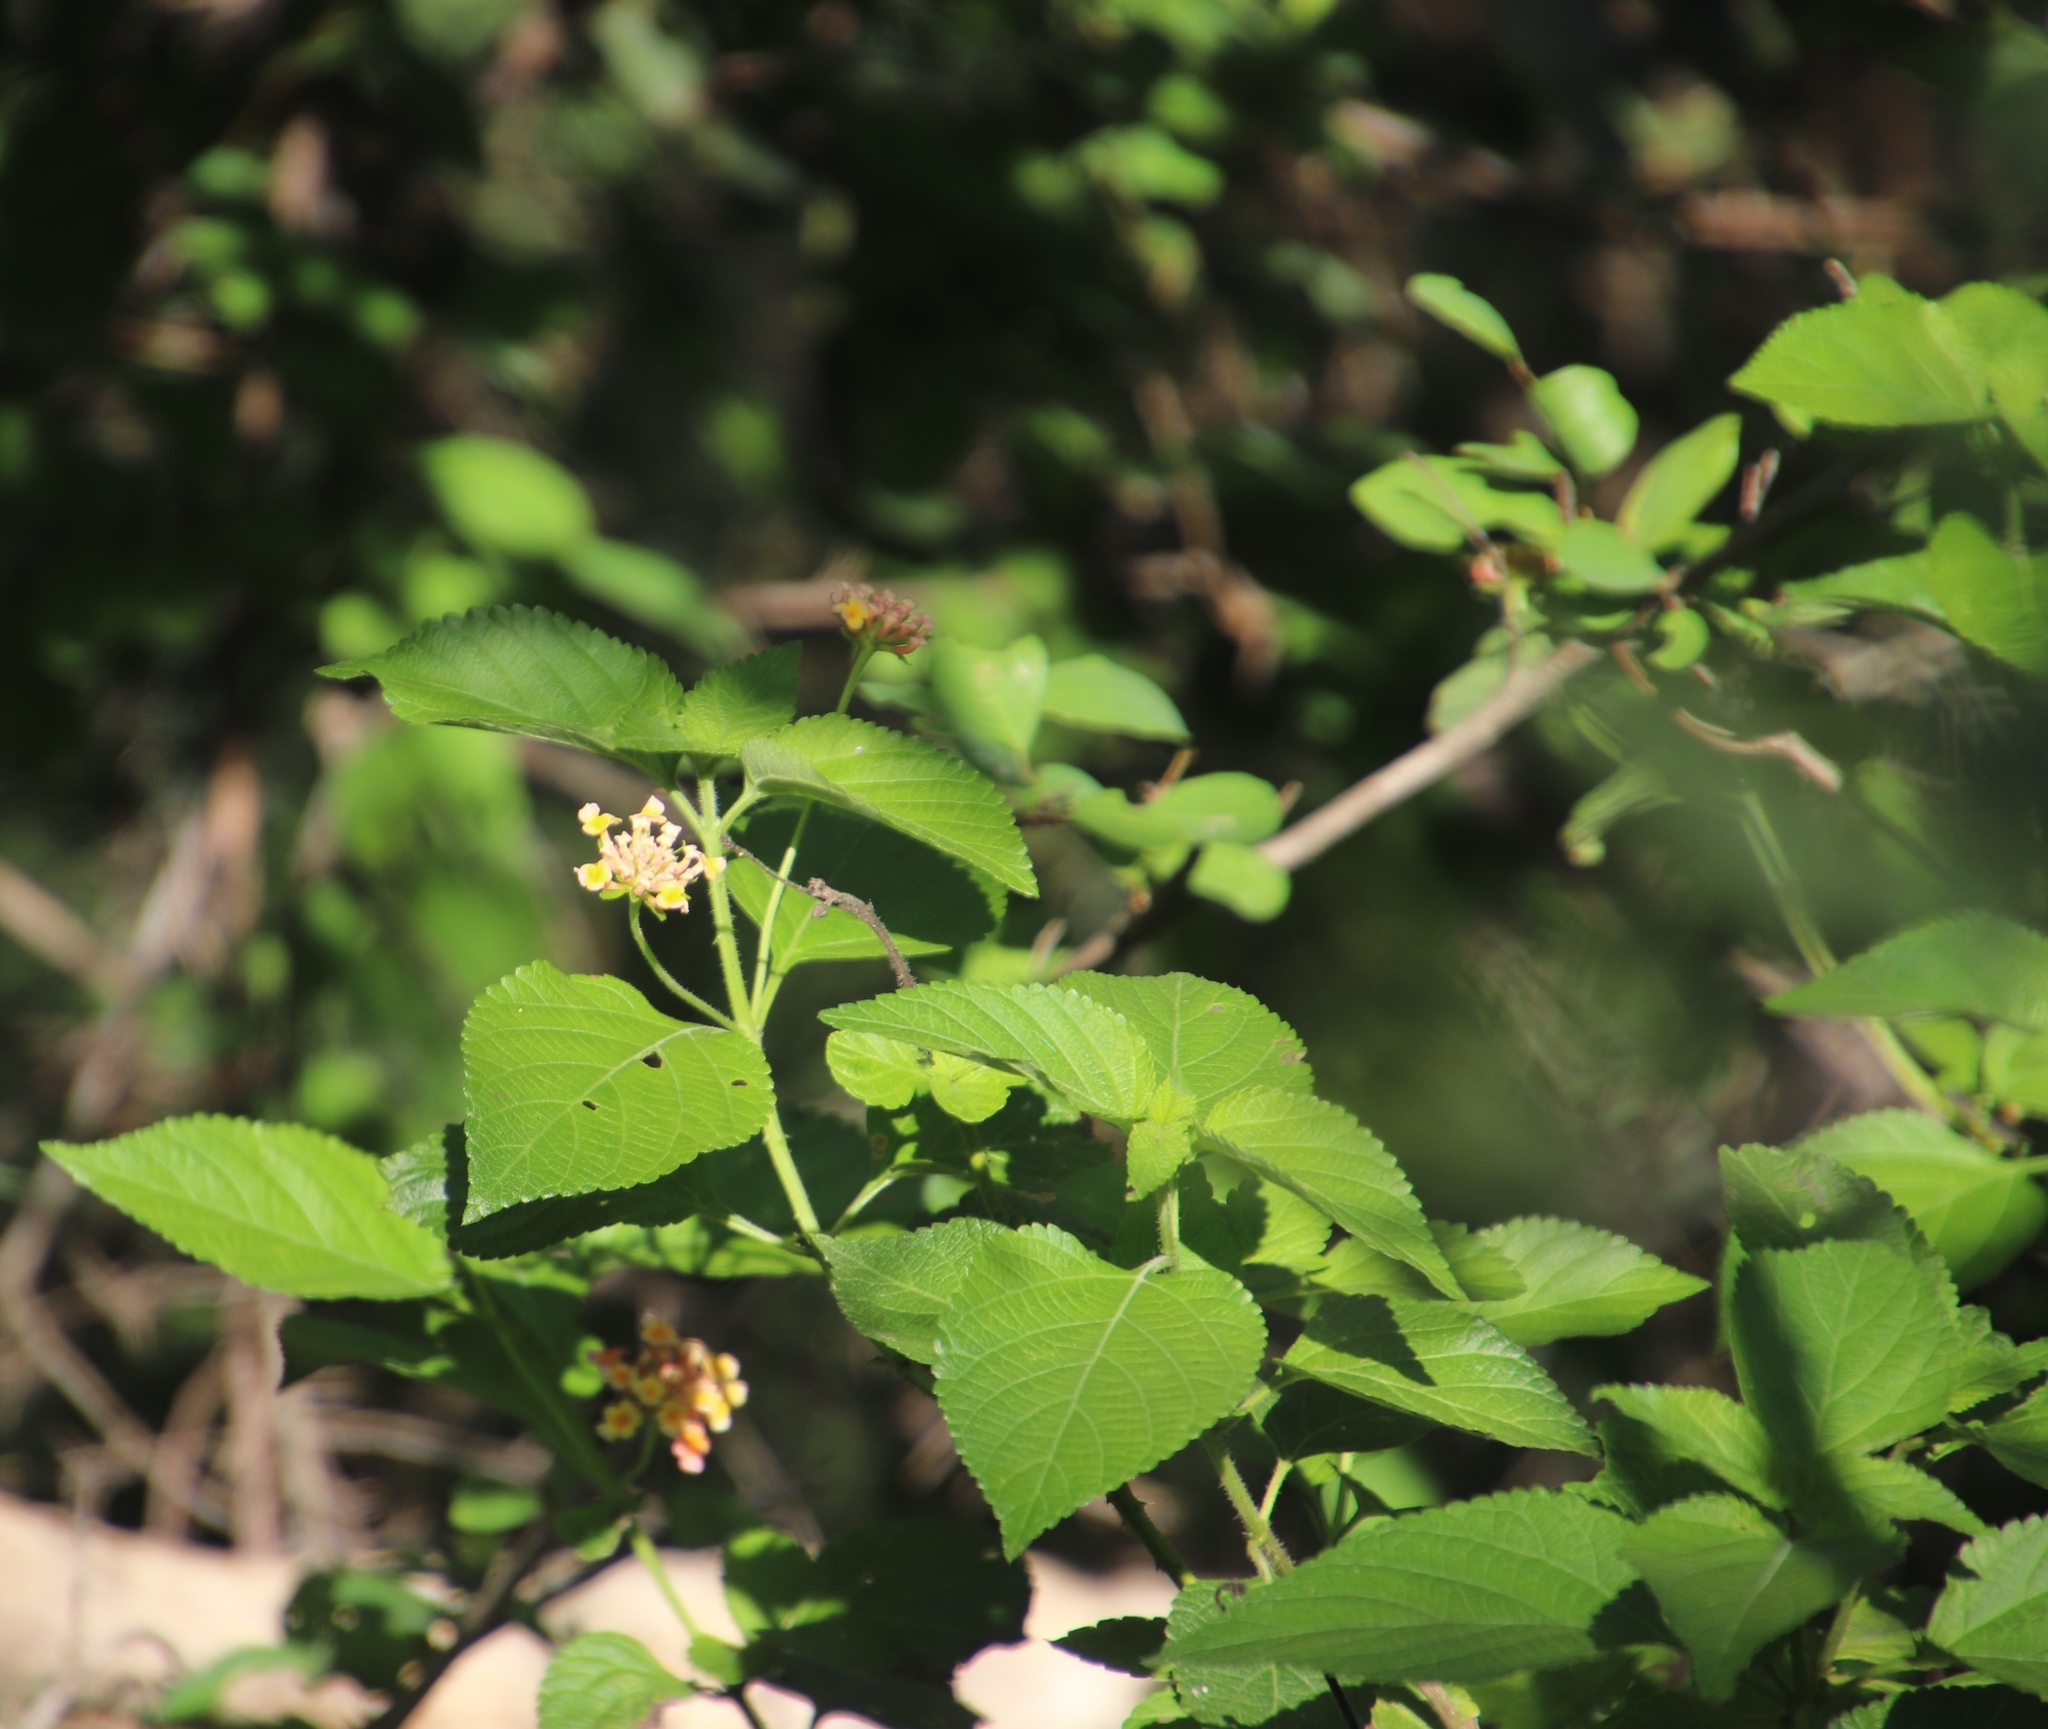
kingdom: Plantae
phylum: Tracheophyta
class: Magnoliopsida
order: Lamiales
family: Verbenaceae
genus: Lantana
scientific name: Lantana camara
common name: Lantana
